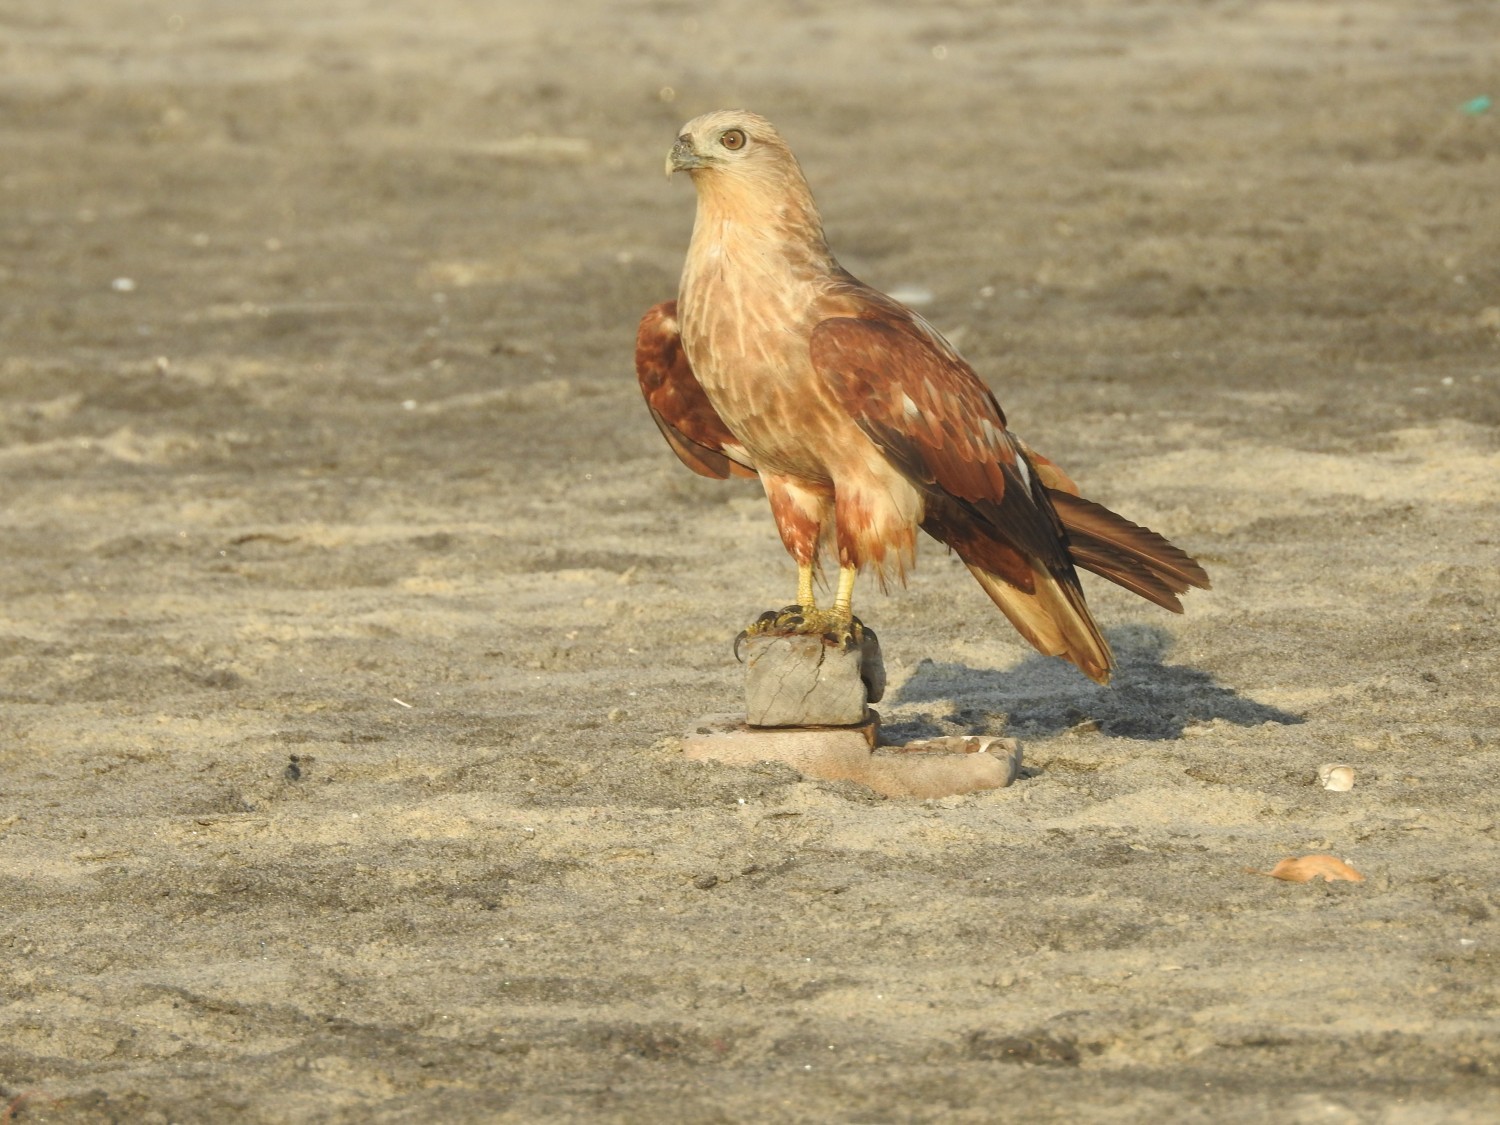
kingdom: Animalia
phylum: Chordata
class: Aves
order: Accipitriformes
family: Accipitridae
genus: Haliastur
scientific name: Haliastur indus
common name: Brahminy kite
